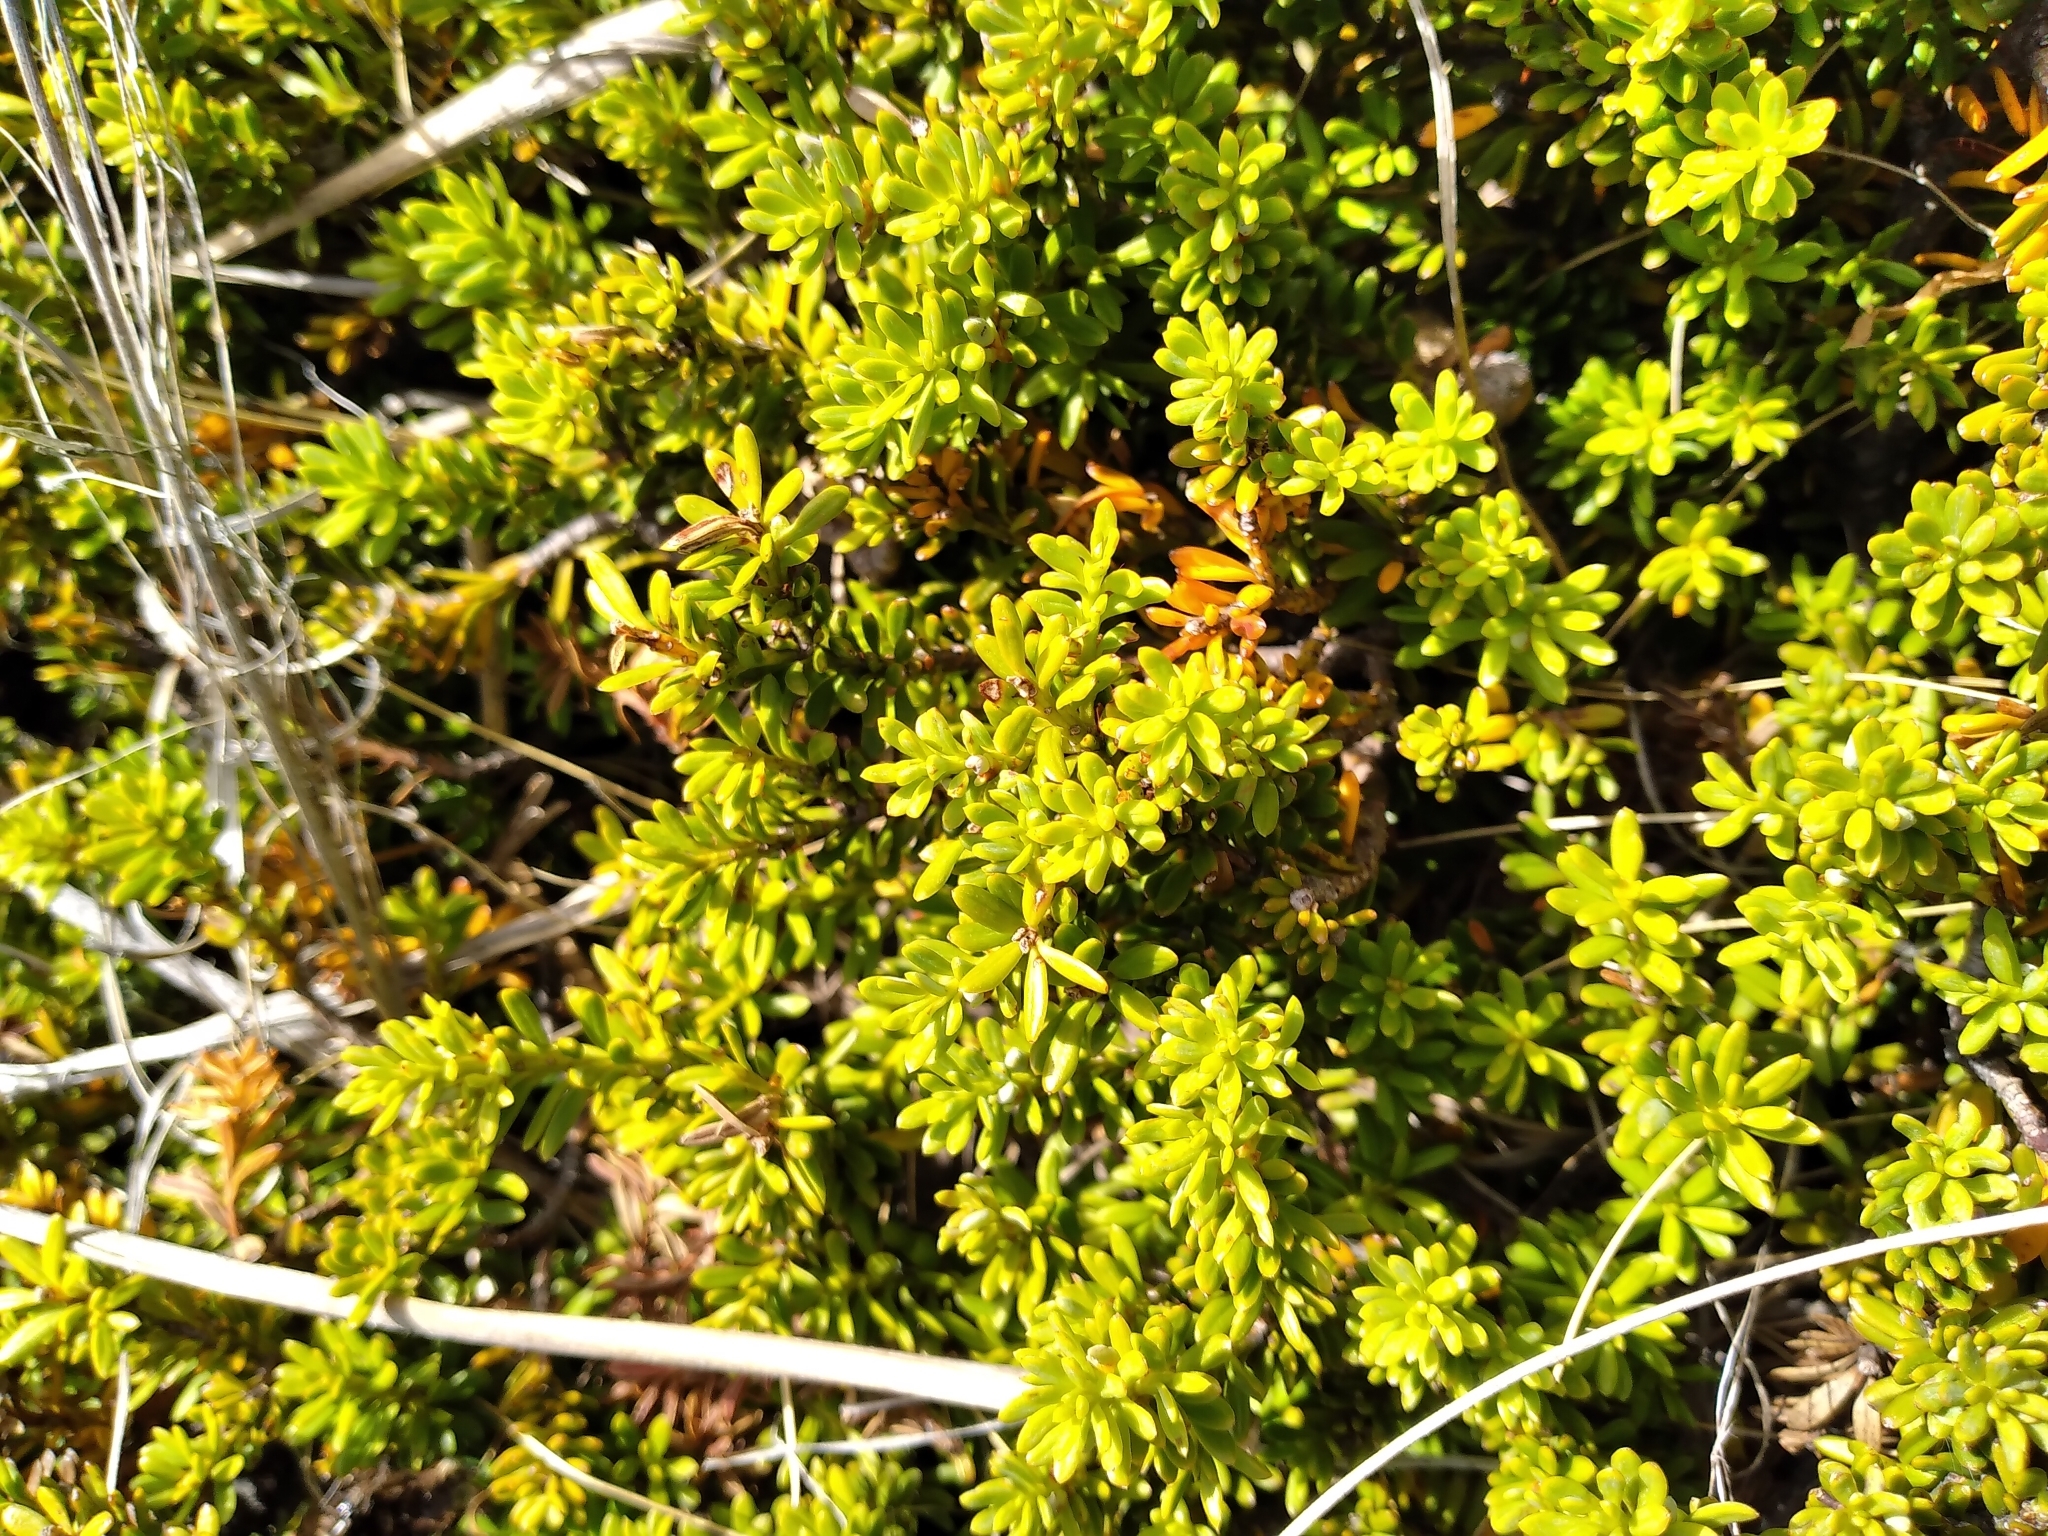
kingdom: Plantae
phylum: Tracheophyta
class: Pinopsida
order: Pinales
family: Podocarpaceae
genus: Podocarpus
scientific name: Podocarpus nivalis
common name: Alpine totara
